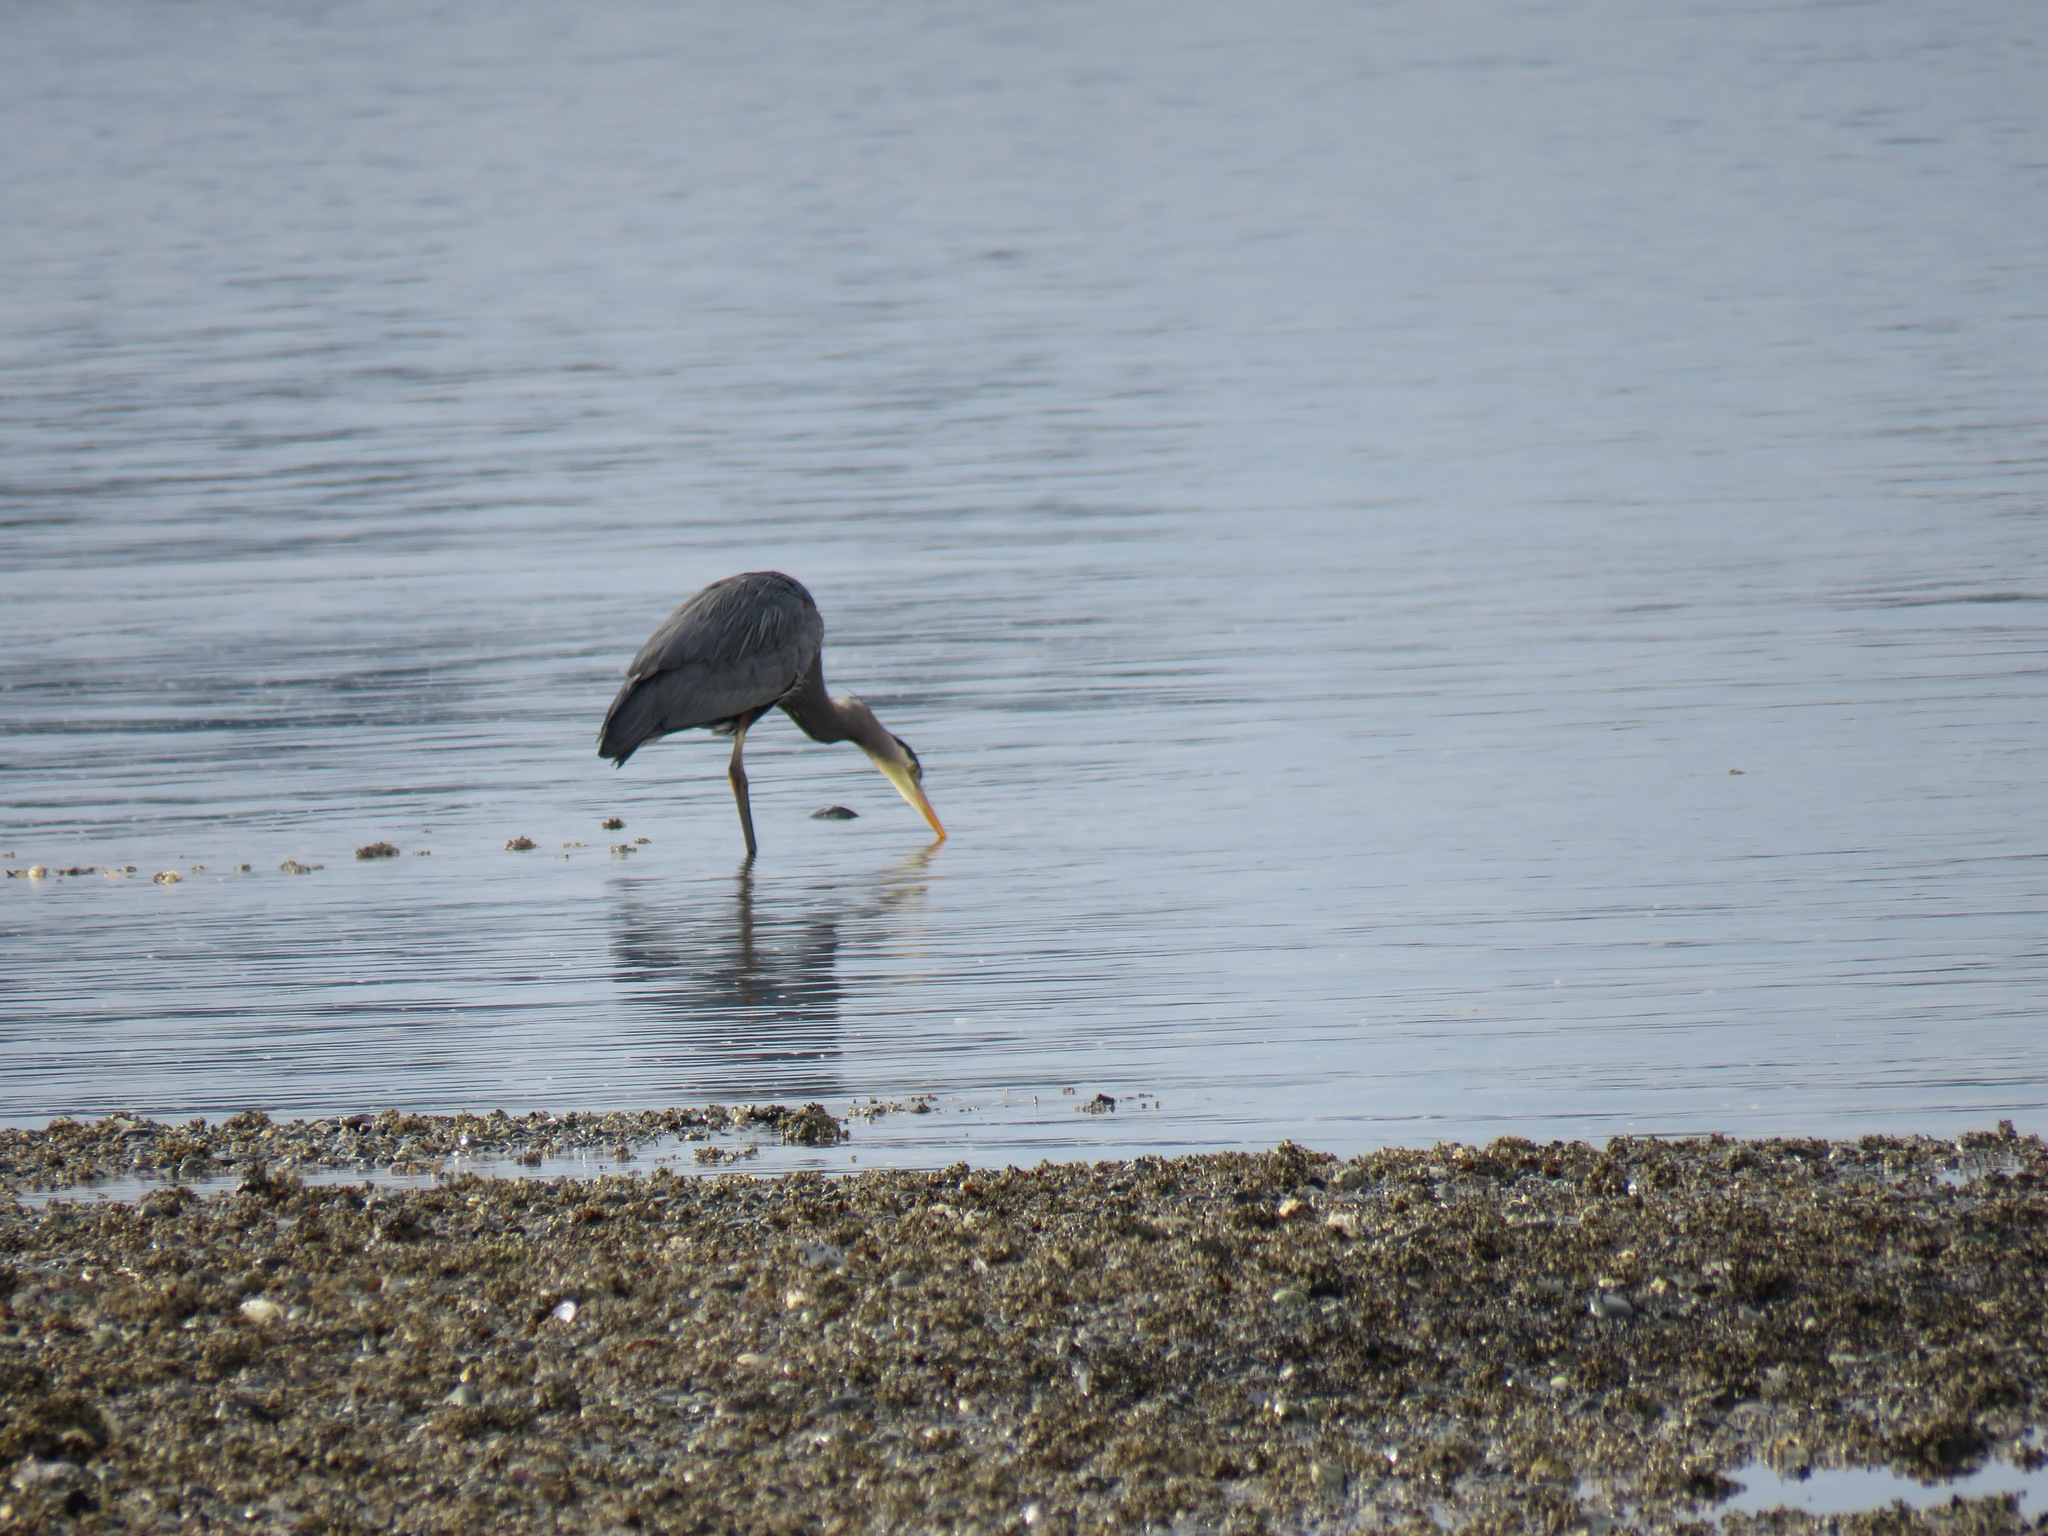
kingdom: Animalia
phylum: Chordata
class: Aves
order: Pelecaniformes
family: Ardeidae
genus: Ardea
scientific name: Ardea herodias
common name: Great blue heron
